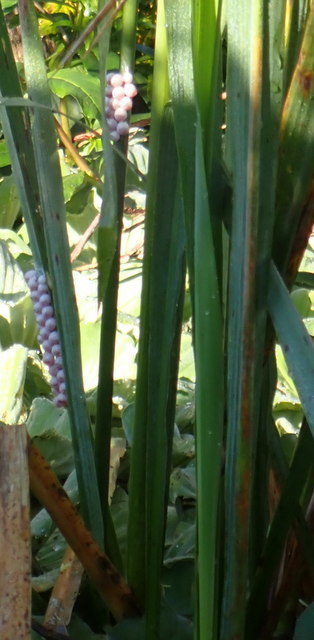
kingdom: Animalia
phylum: Mollusca
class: Gastropoda
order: Architaenioglossa
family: Ampullariidae
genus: Pomacea
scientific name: Pomacea paludosa
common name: Florida applesnail
